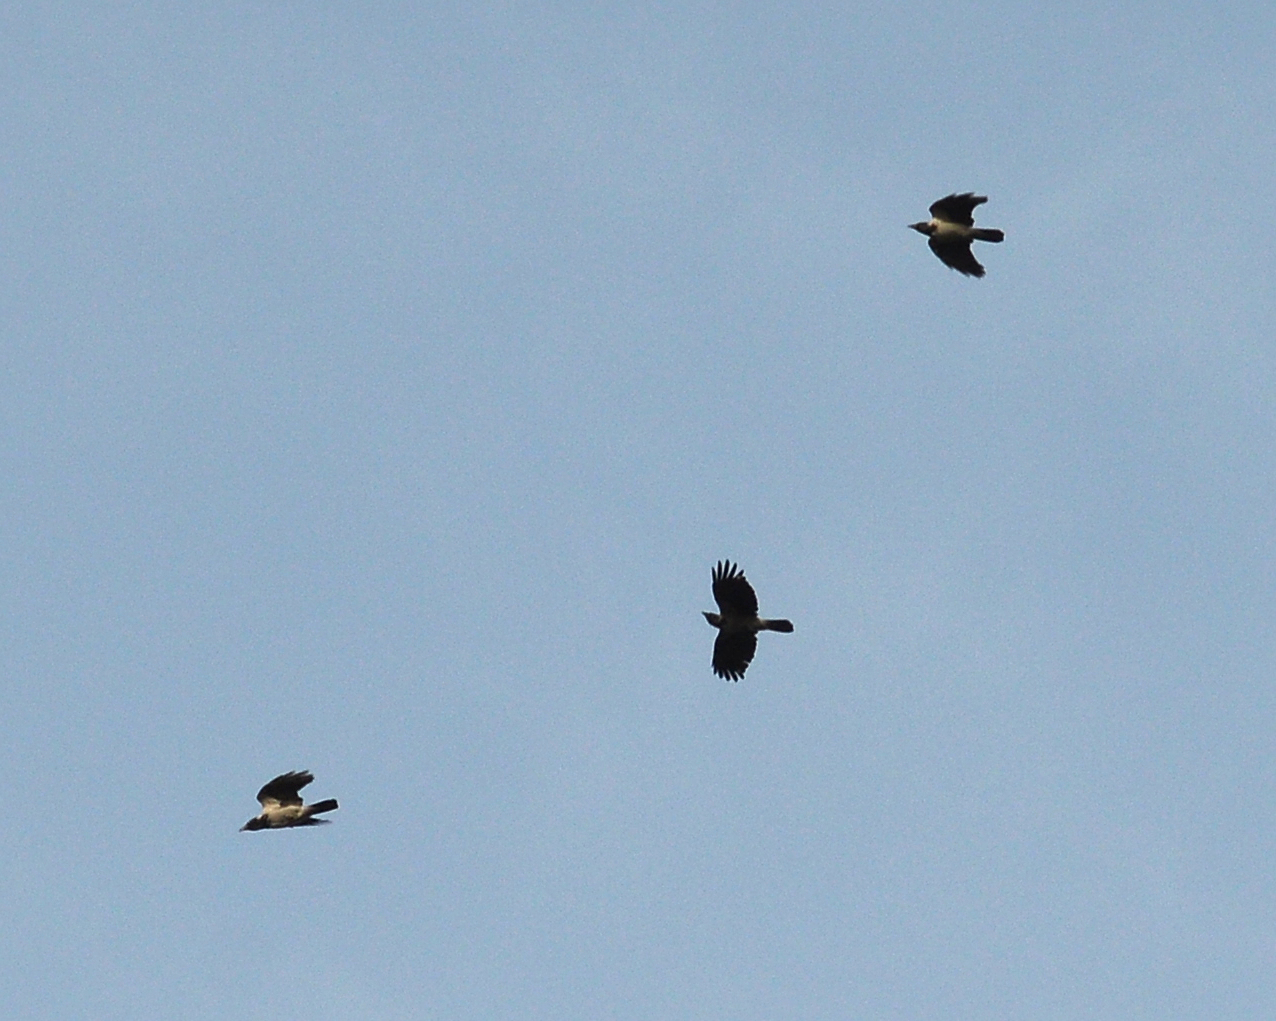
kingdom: Animalia
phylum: Chordata
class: Aves
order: Passeriformes
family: Corvidae
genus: Corvus
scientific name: Corvus cornix
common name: Hooded crow
